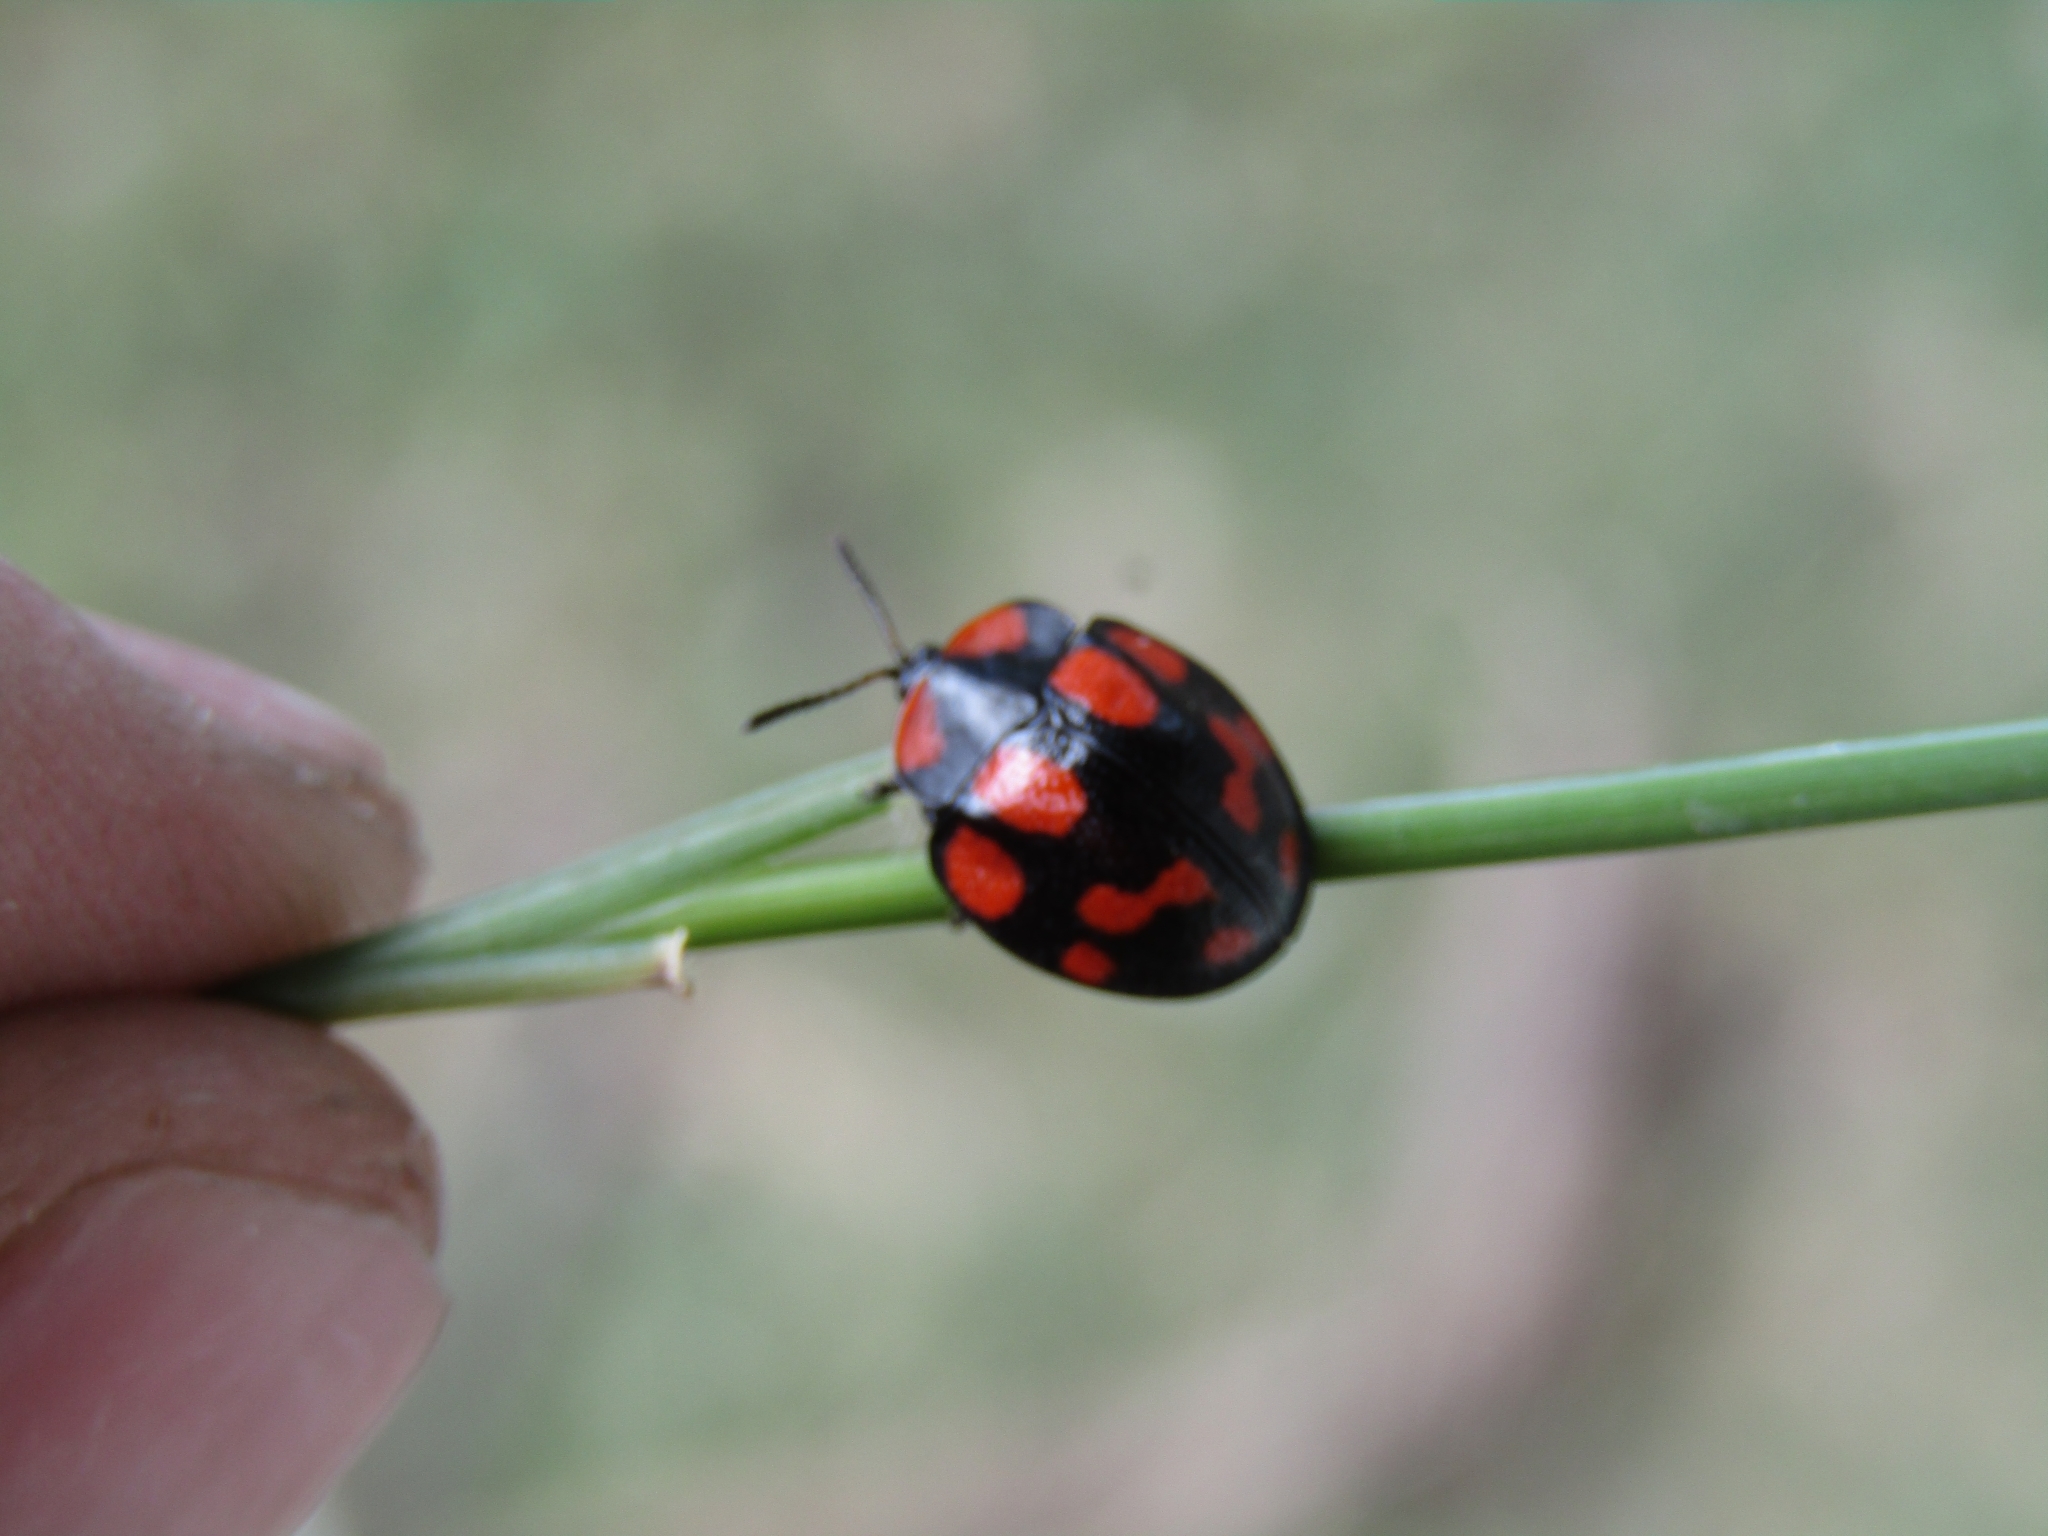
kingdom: Animalia
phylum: Arthropoda
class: Insecta
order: Coleoptera
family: Chrysomelidae
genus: Botanochara
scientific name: Botanochara duodecimverrucata
